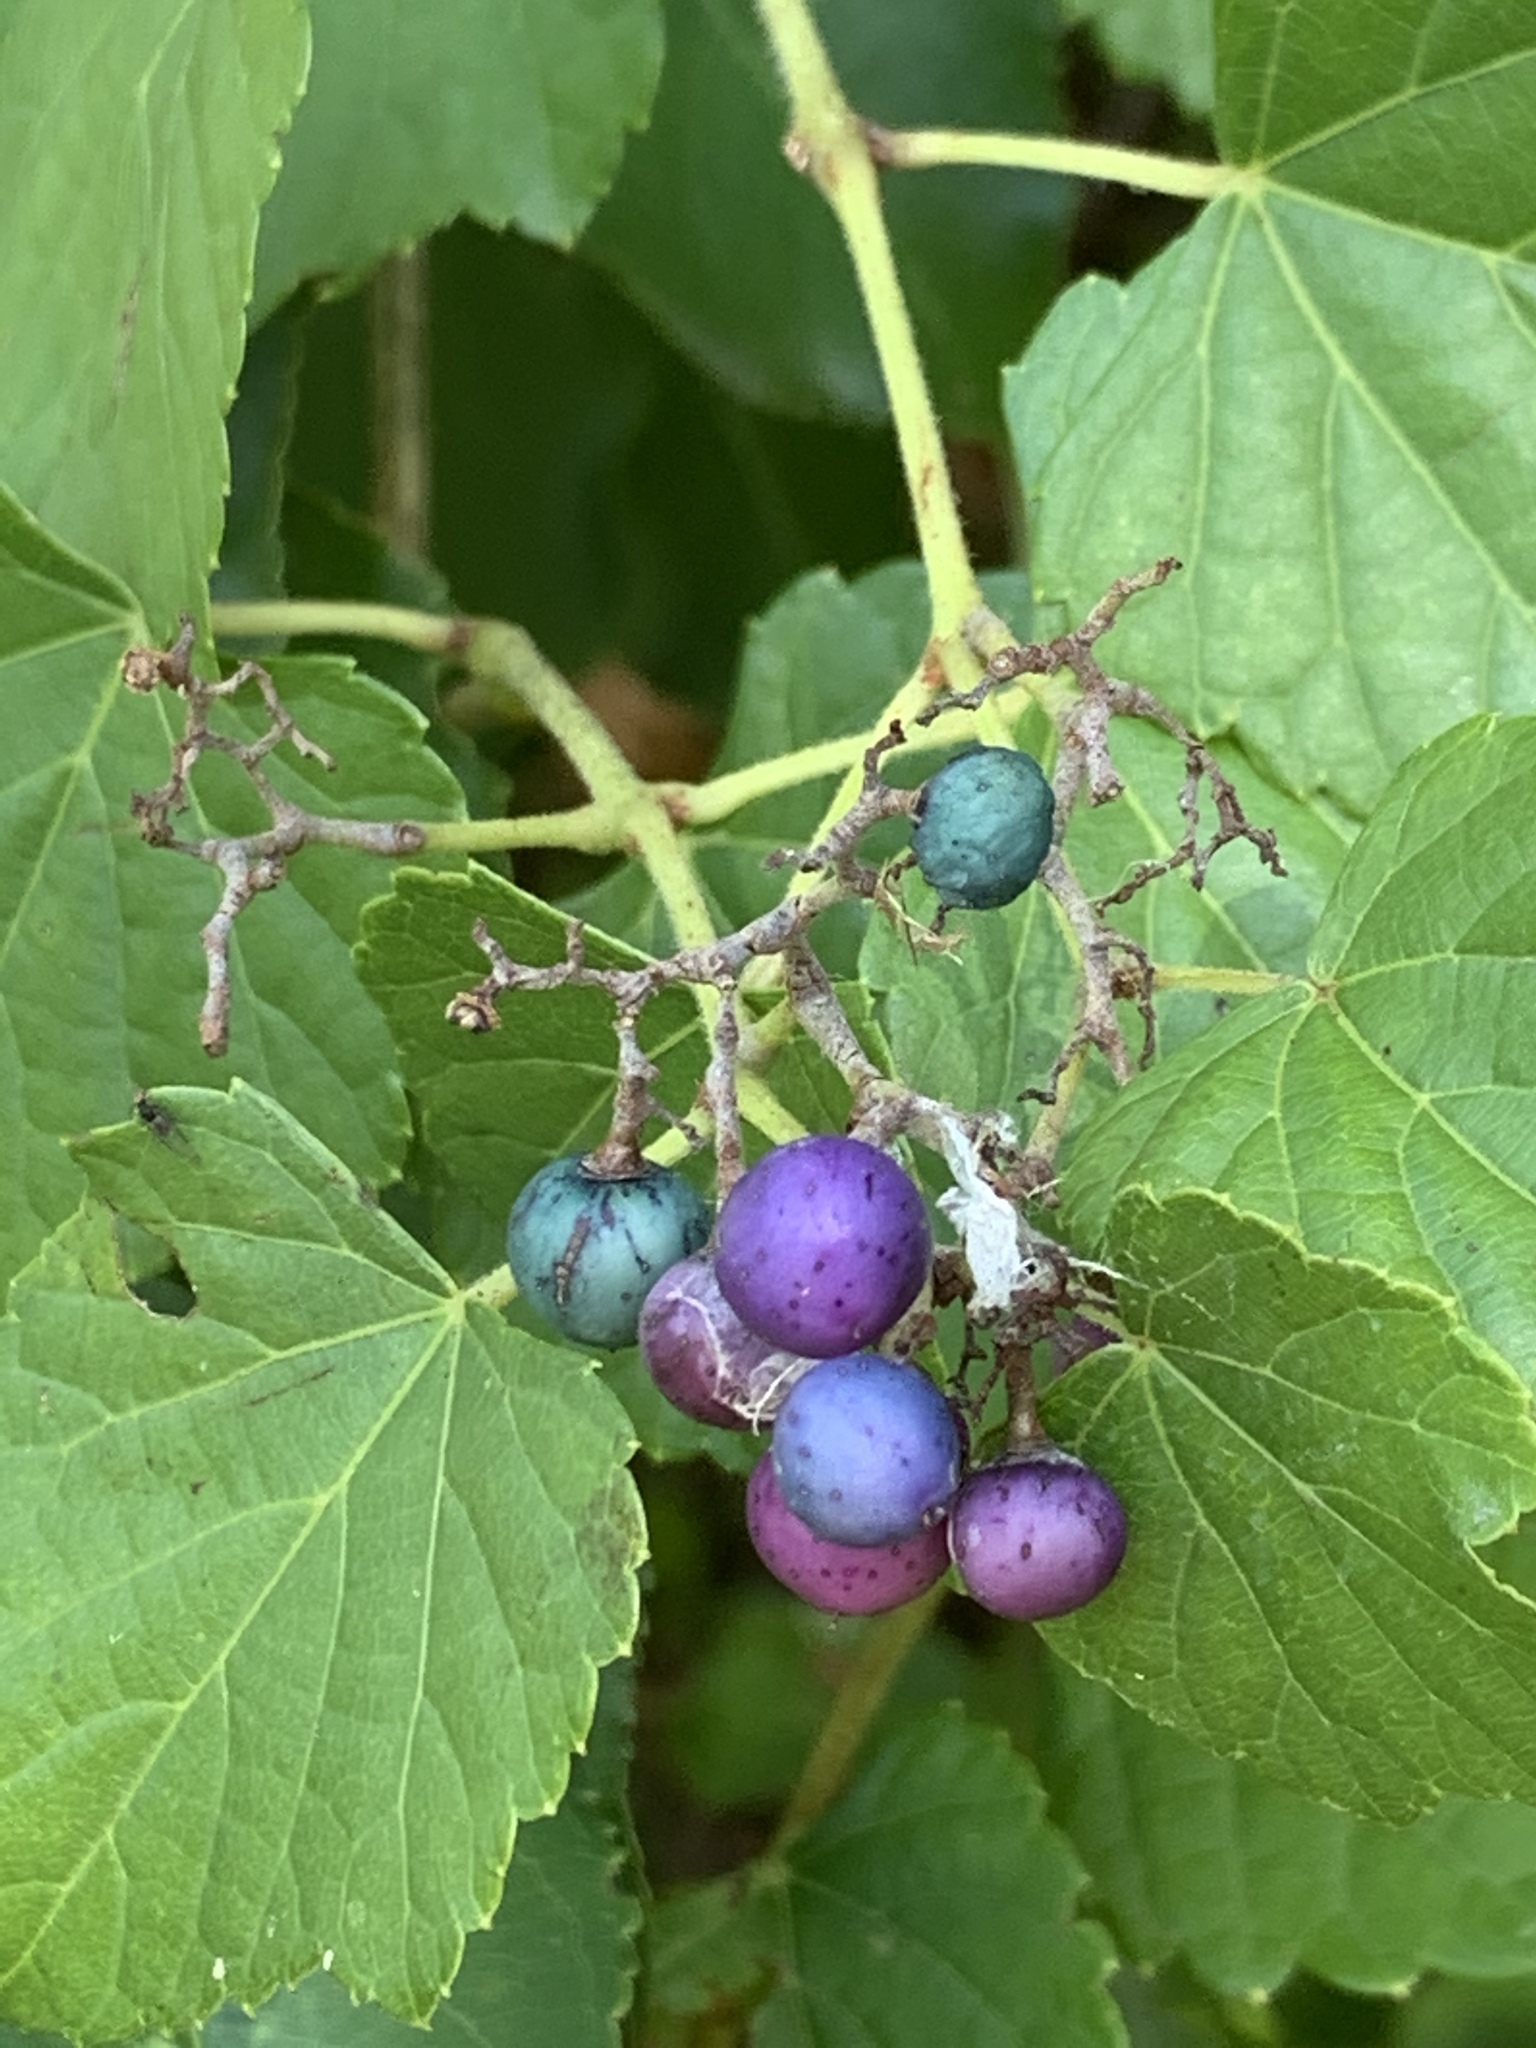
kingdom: Plantae
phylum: Tracheophyta
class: Magnoliopsida
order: Vitales
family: Vitaceae
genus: Ampelopsis
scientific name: Ampelopsis glandulosa
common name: Amur peppervine
